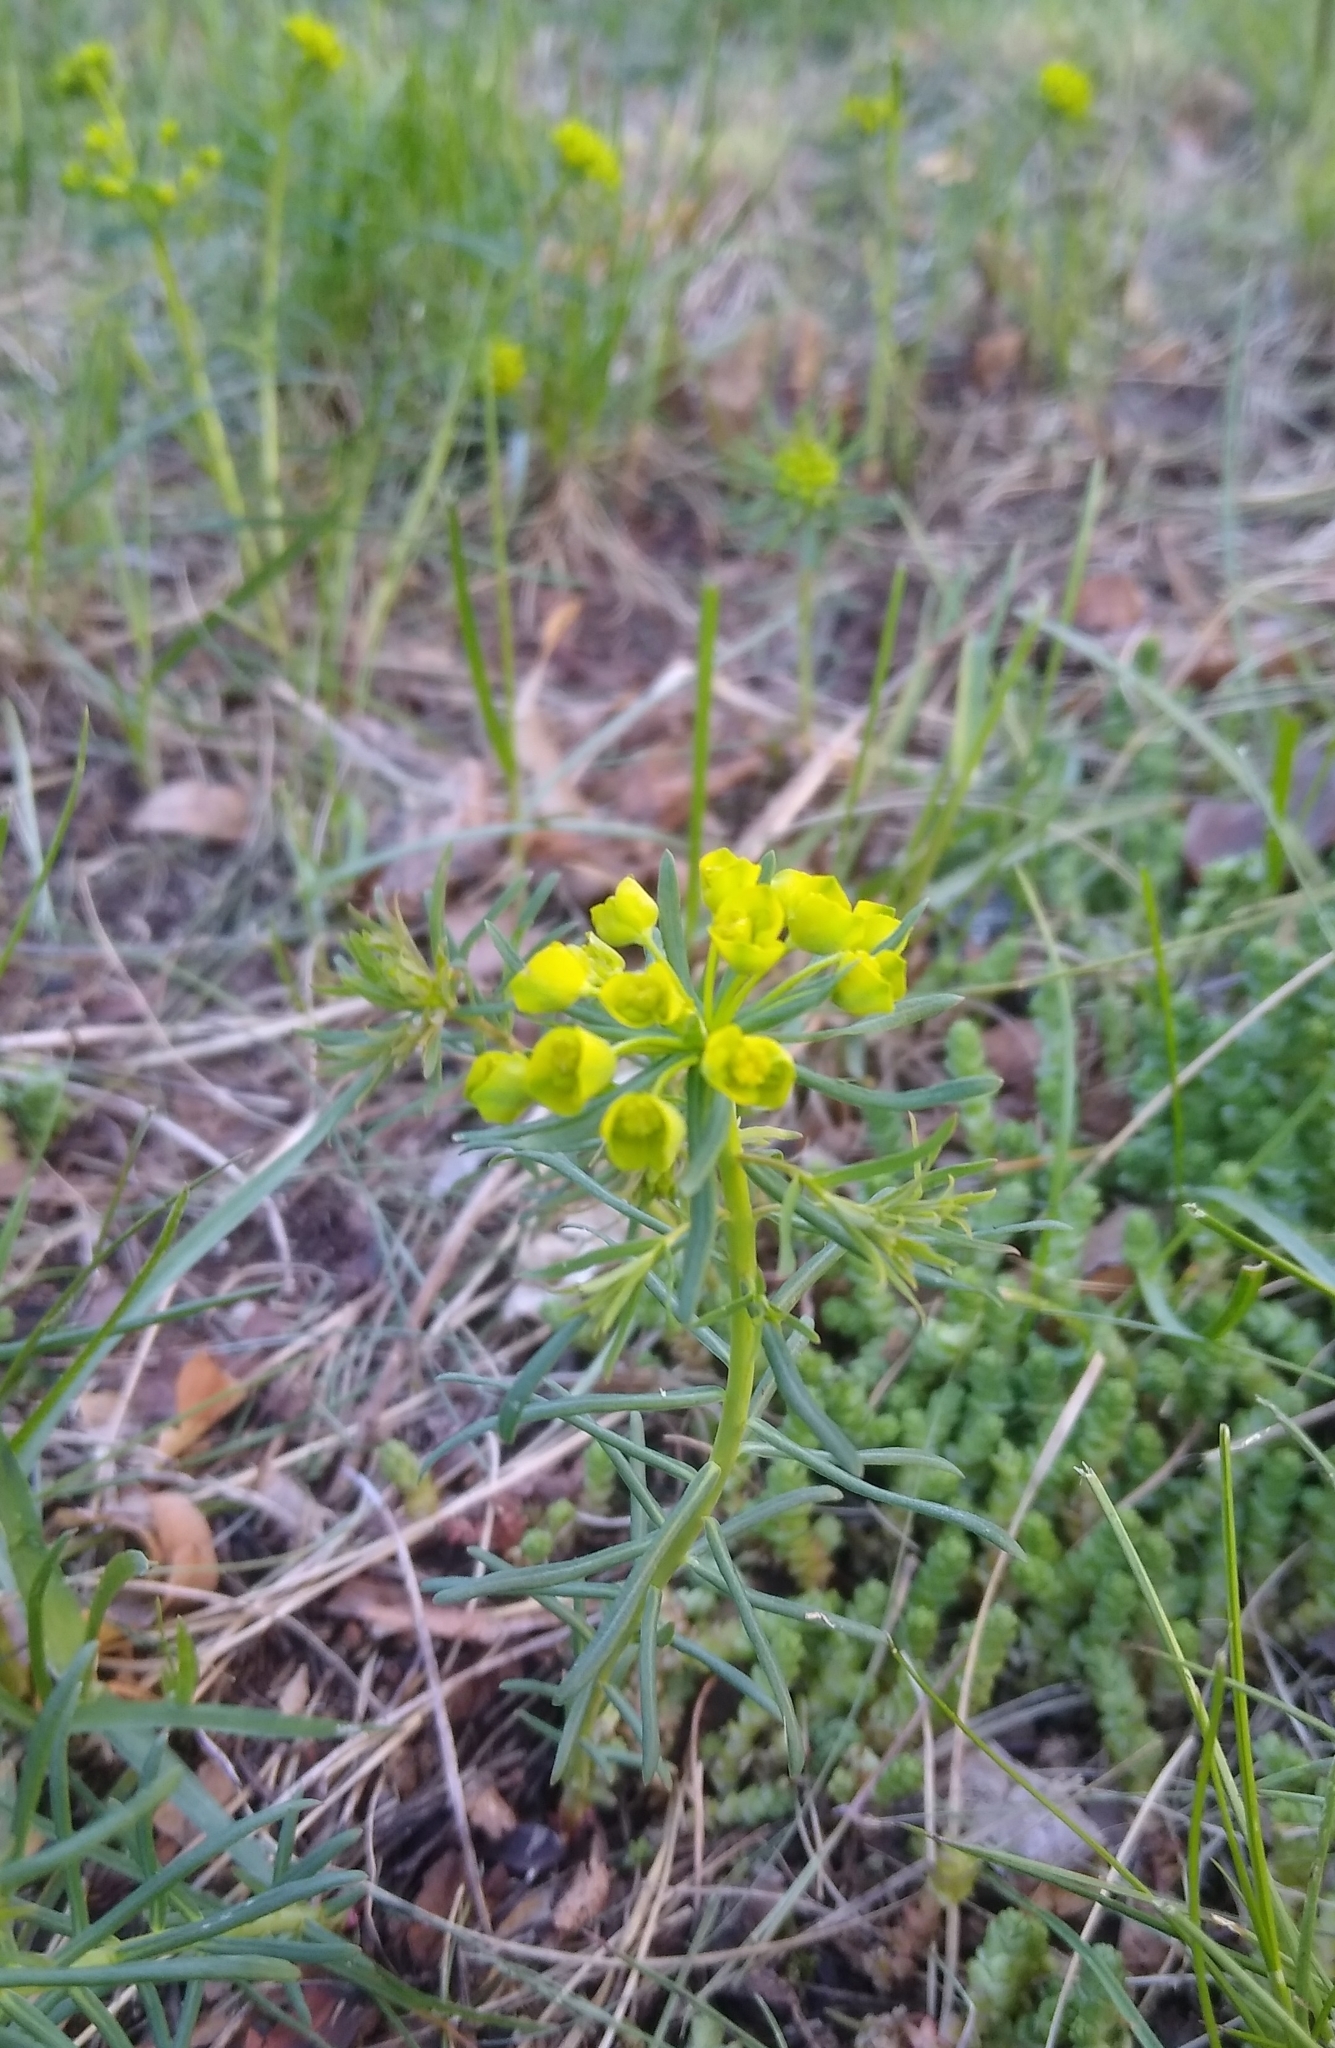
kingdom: Plantae
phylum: Tracheophyta
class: Magnoliopsida
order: Malpighiales
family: Euphorbiaceae
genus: Euphorbia
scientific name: Euphorbia cyparissias
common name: Cypress spurge
